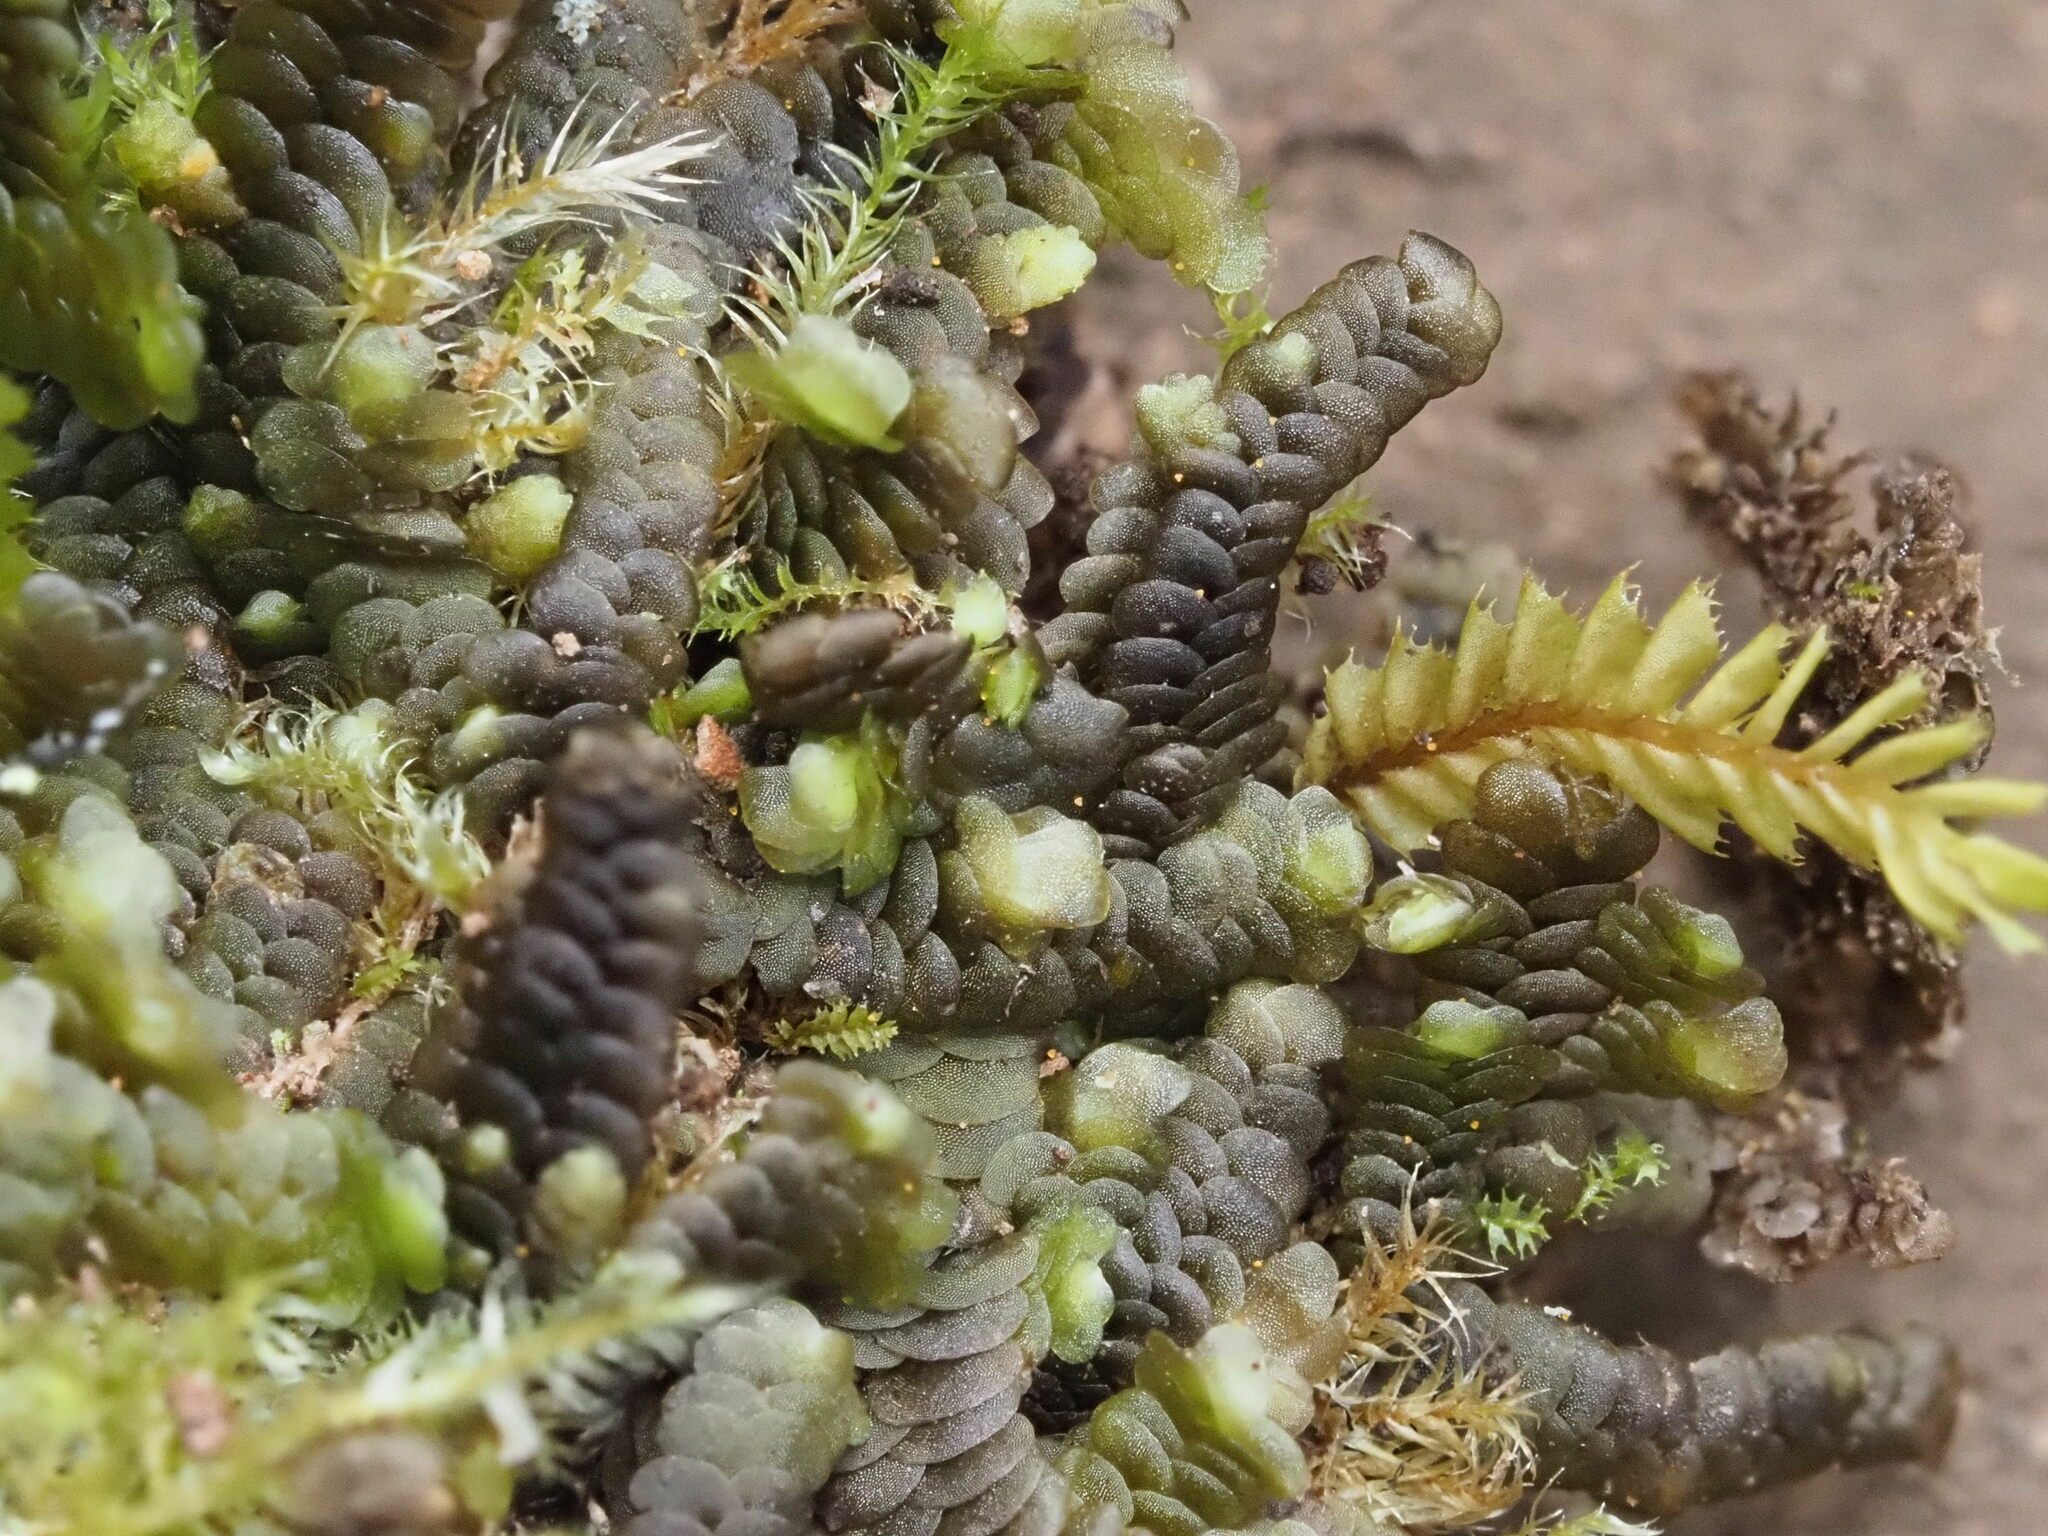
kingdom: Plantae
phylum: Marchantiophyta
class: Jungermanniopsida
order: Porellales
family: Lejeuneaceae
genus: Lopholejeunea
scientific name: Lopholejeunea nigricans
